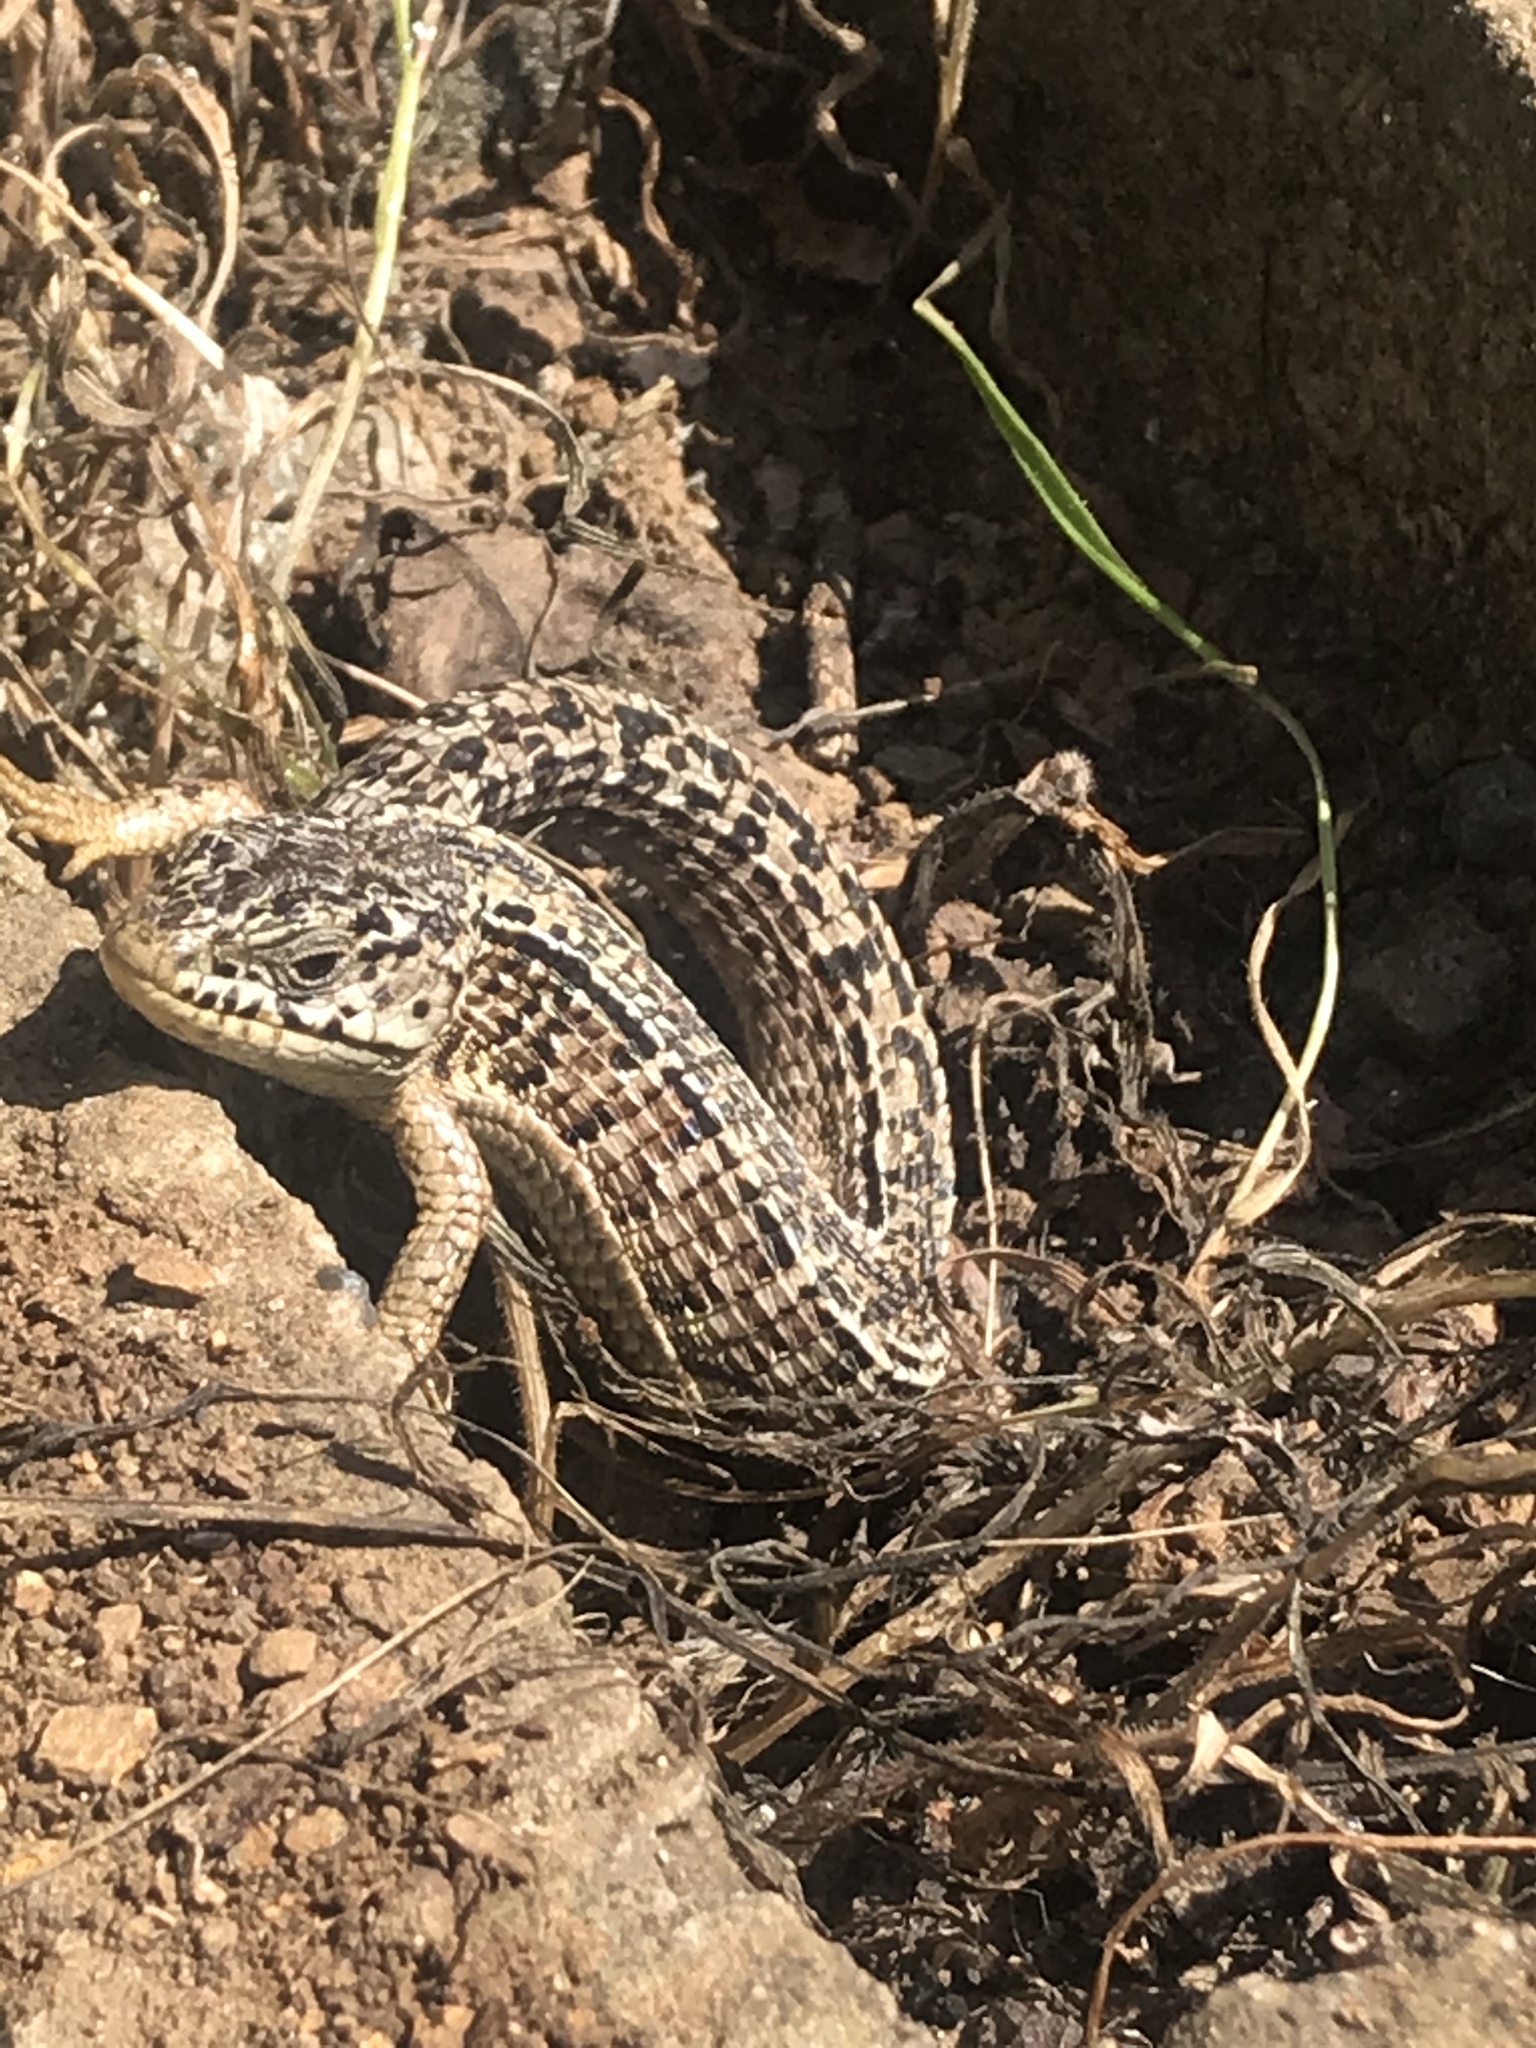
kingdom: Animalia
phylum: Chordata
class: Squamata
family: Anguidae
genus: Elgaria
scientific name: Elgaria coerulea
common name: Northern alligator lizard
